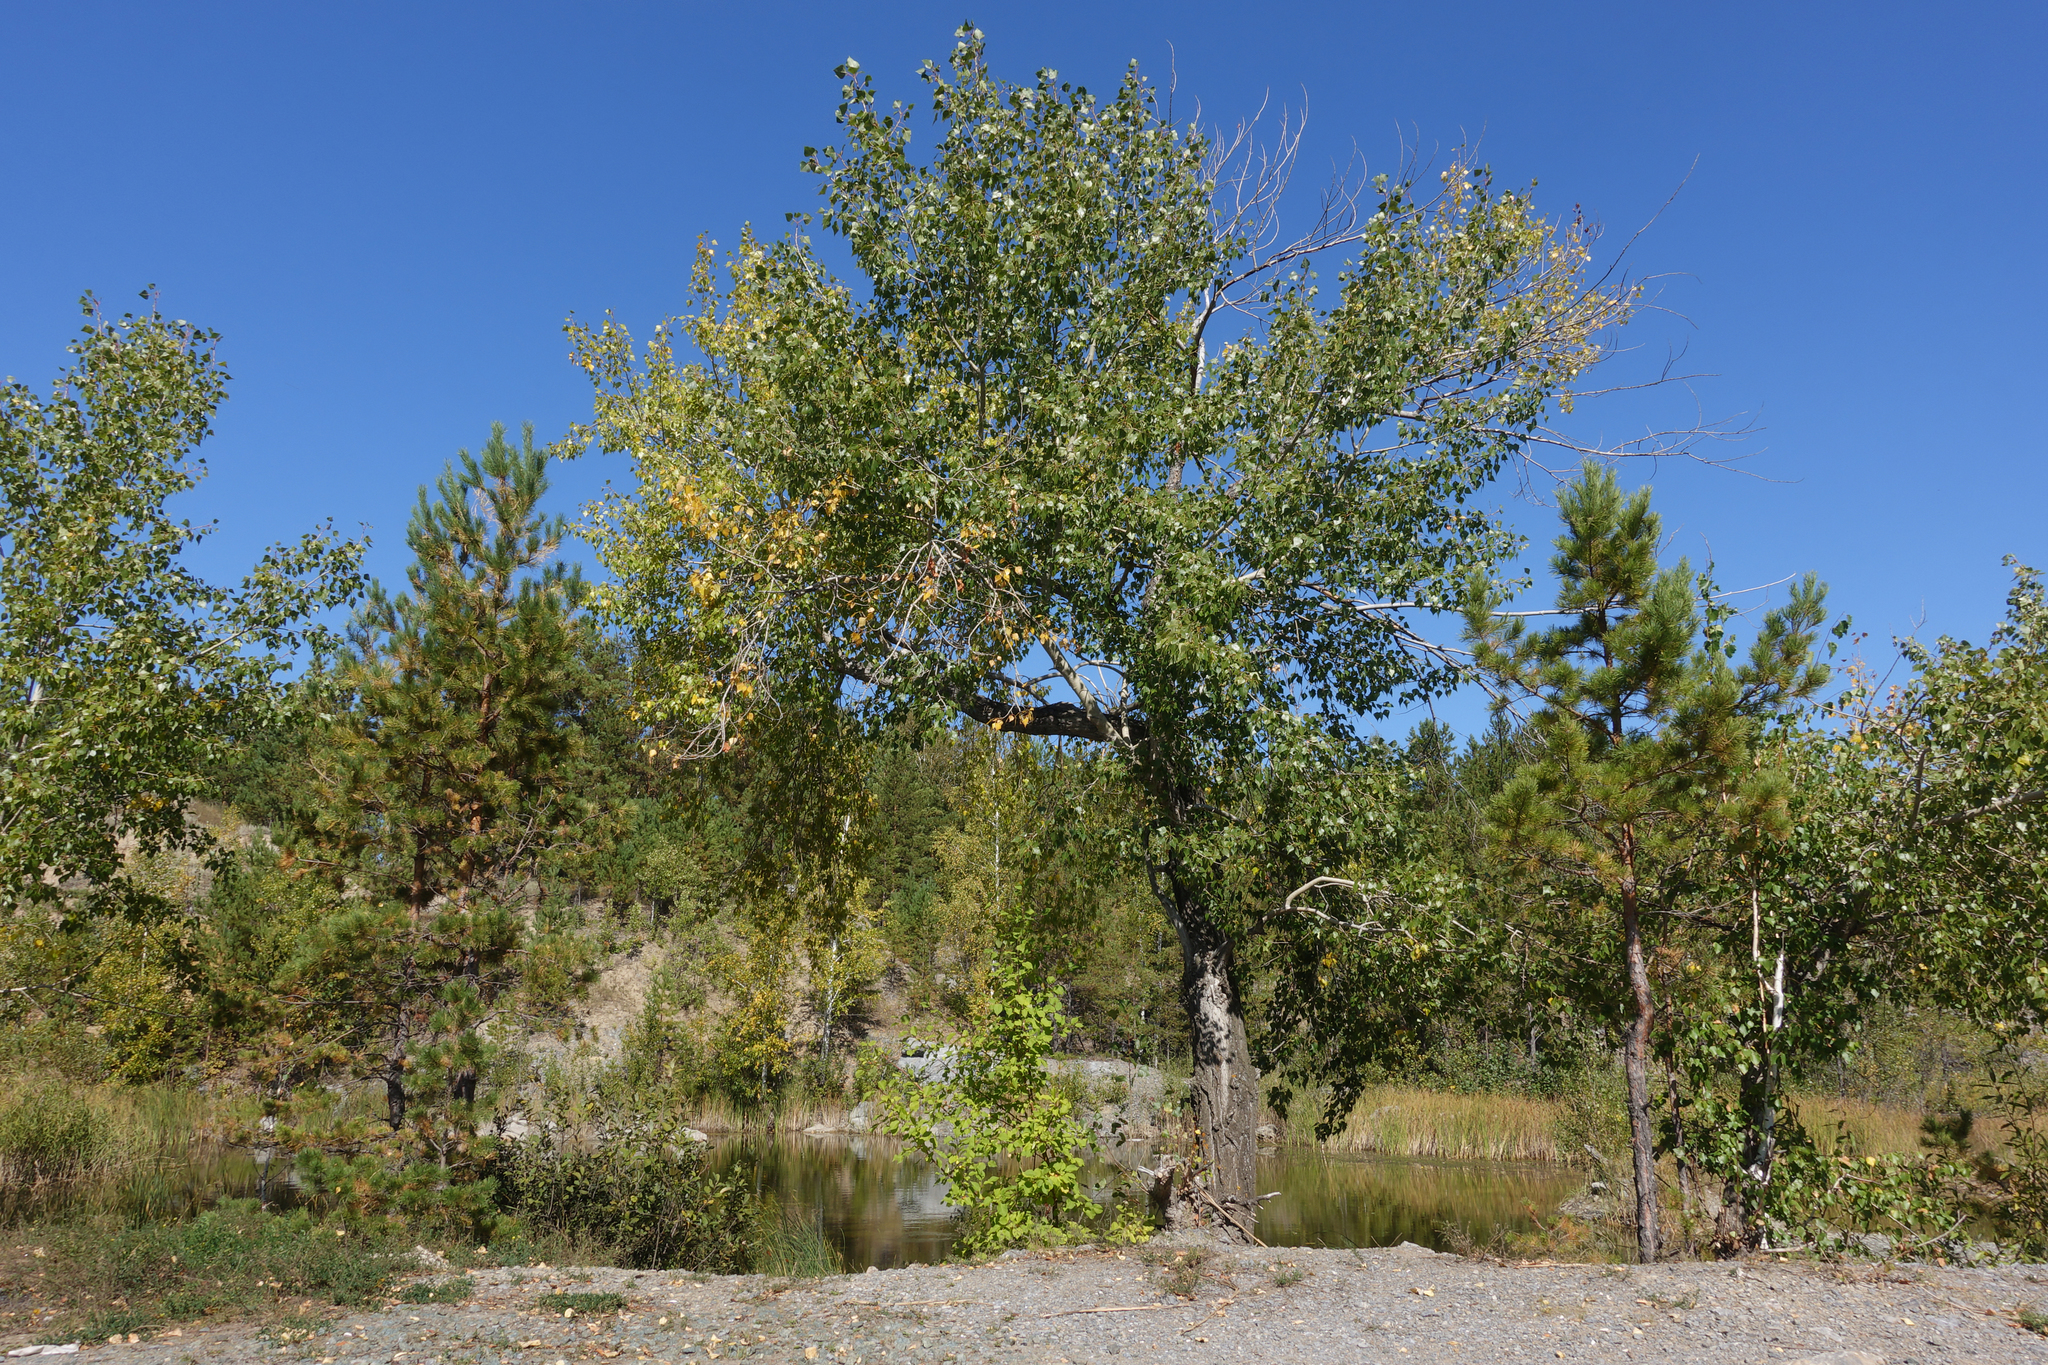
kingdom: Plantae
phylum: Tracheophyta
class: Magnoliopsida
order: Malpighiales
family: Salicaceae
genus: Populus
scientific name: Populus nigra
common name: Black poplar
